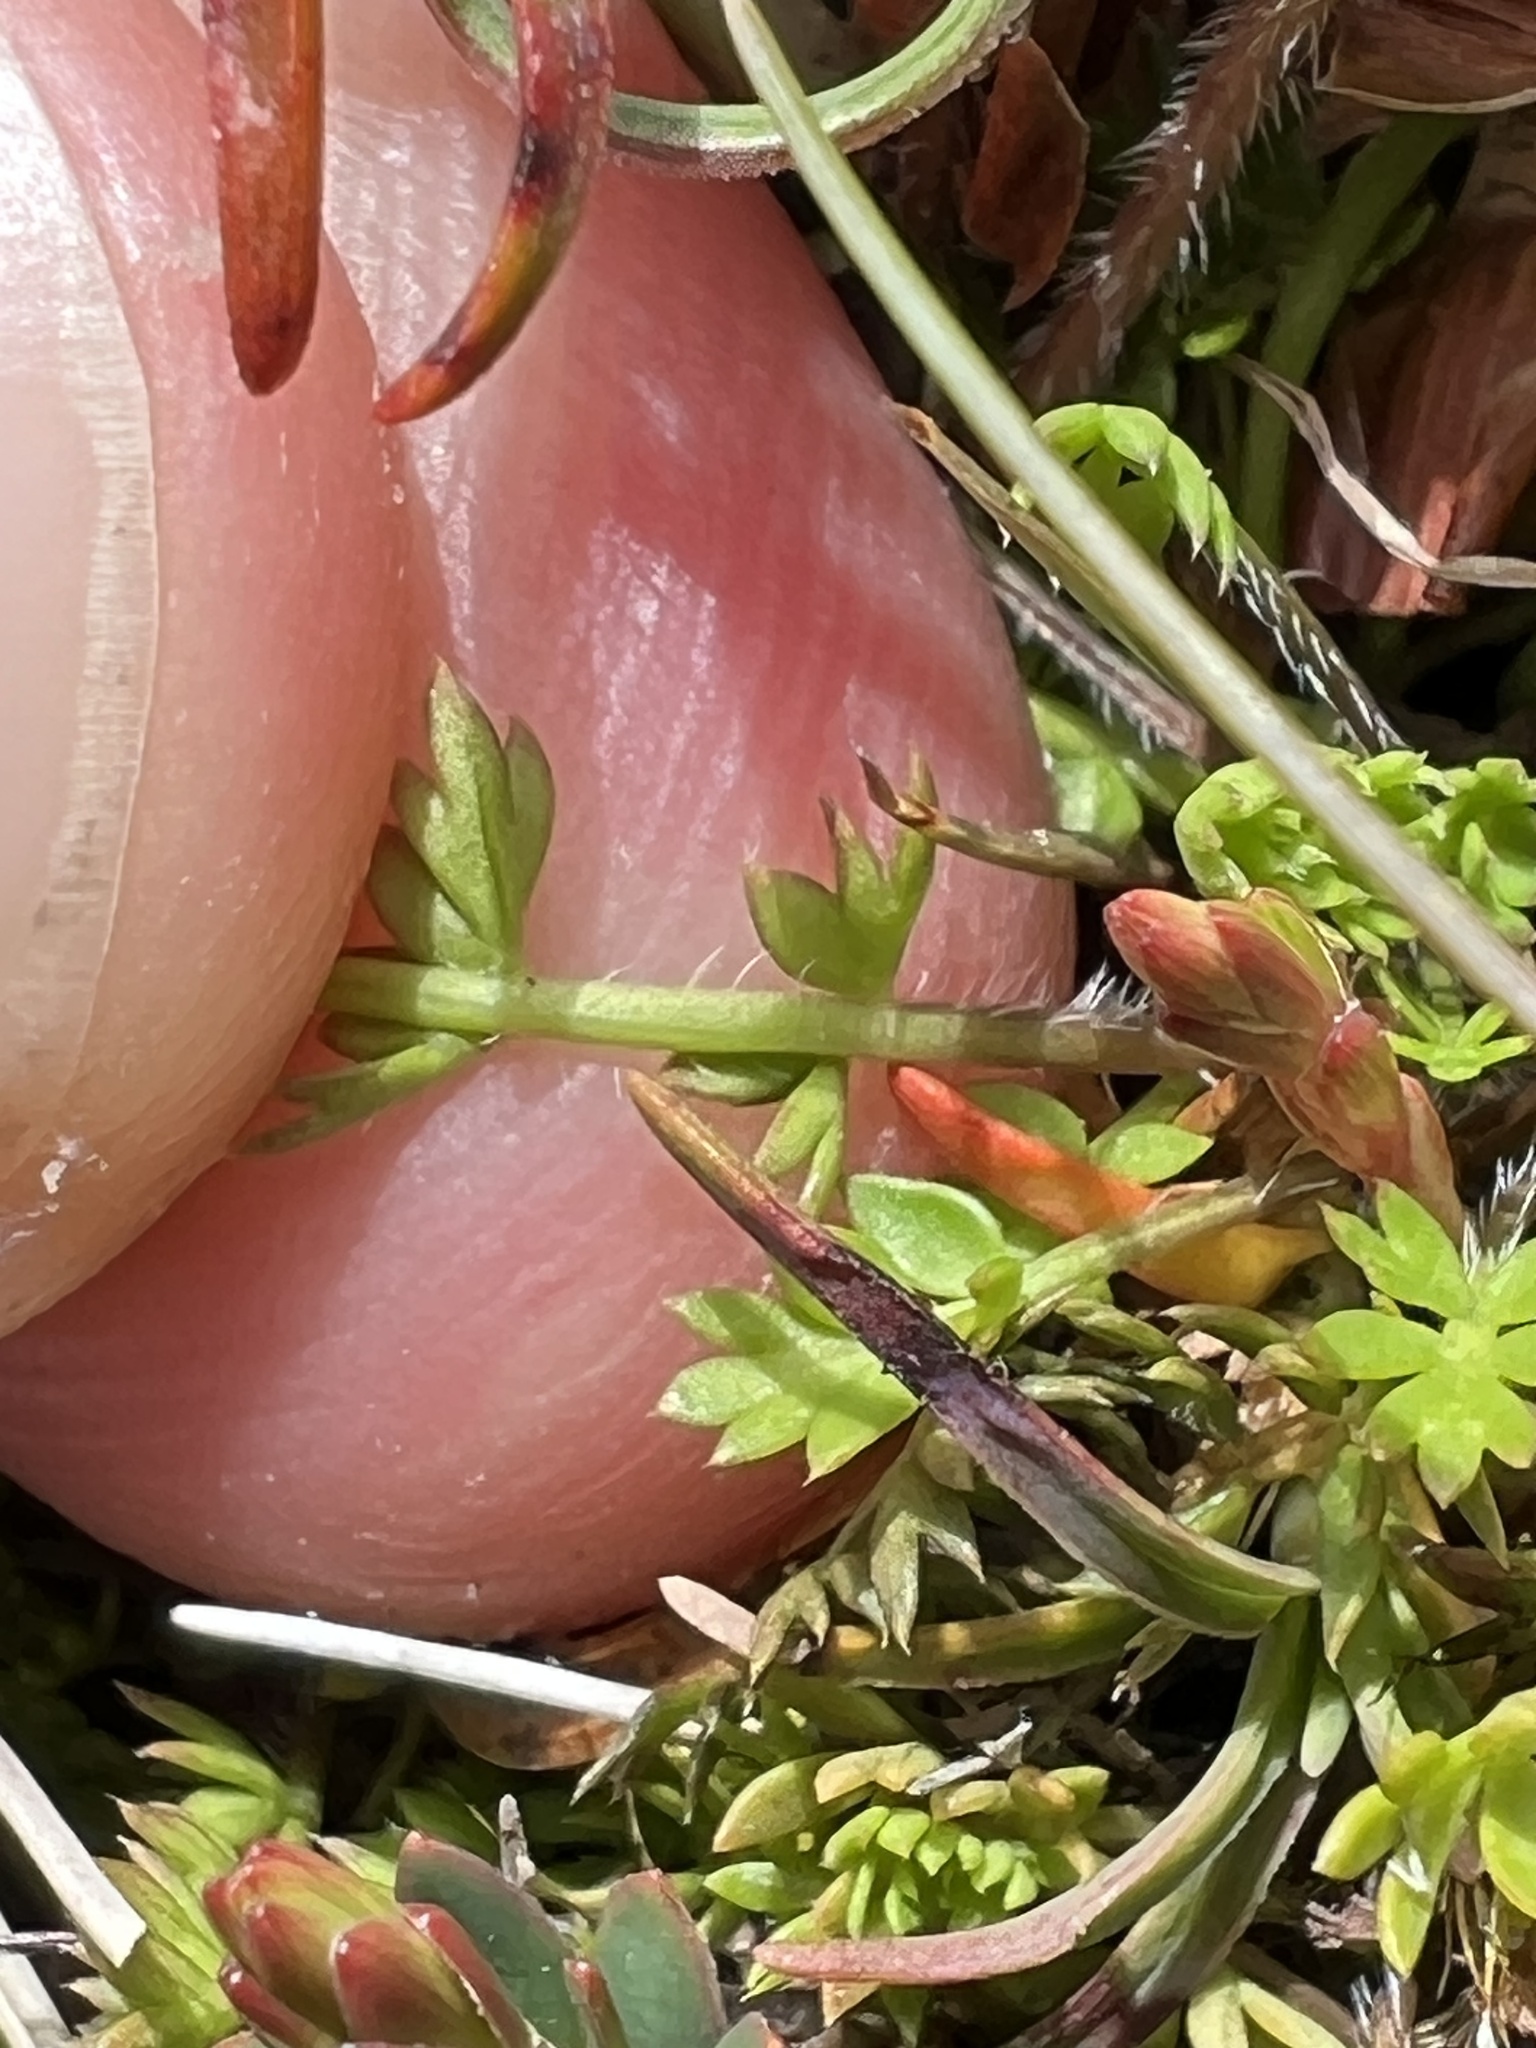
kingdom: Plantae
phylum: Tracheophyta
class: Magnoliopsida
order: Apiales
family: Apiaceae
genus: Chaerophyllum
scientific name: Chaerophyllum colensoi
